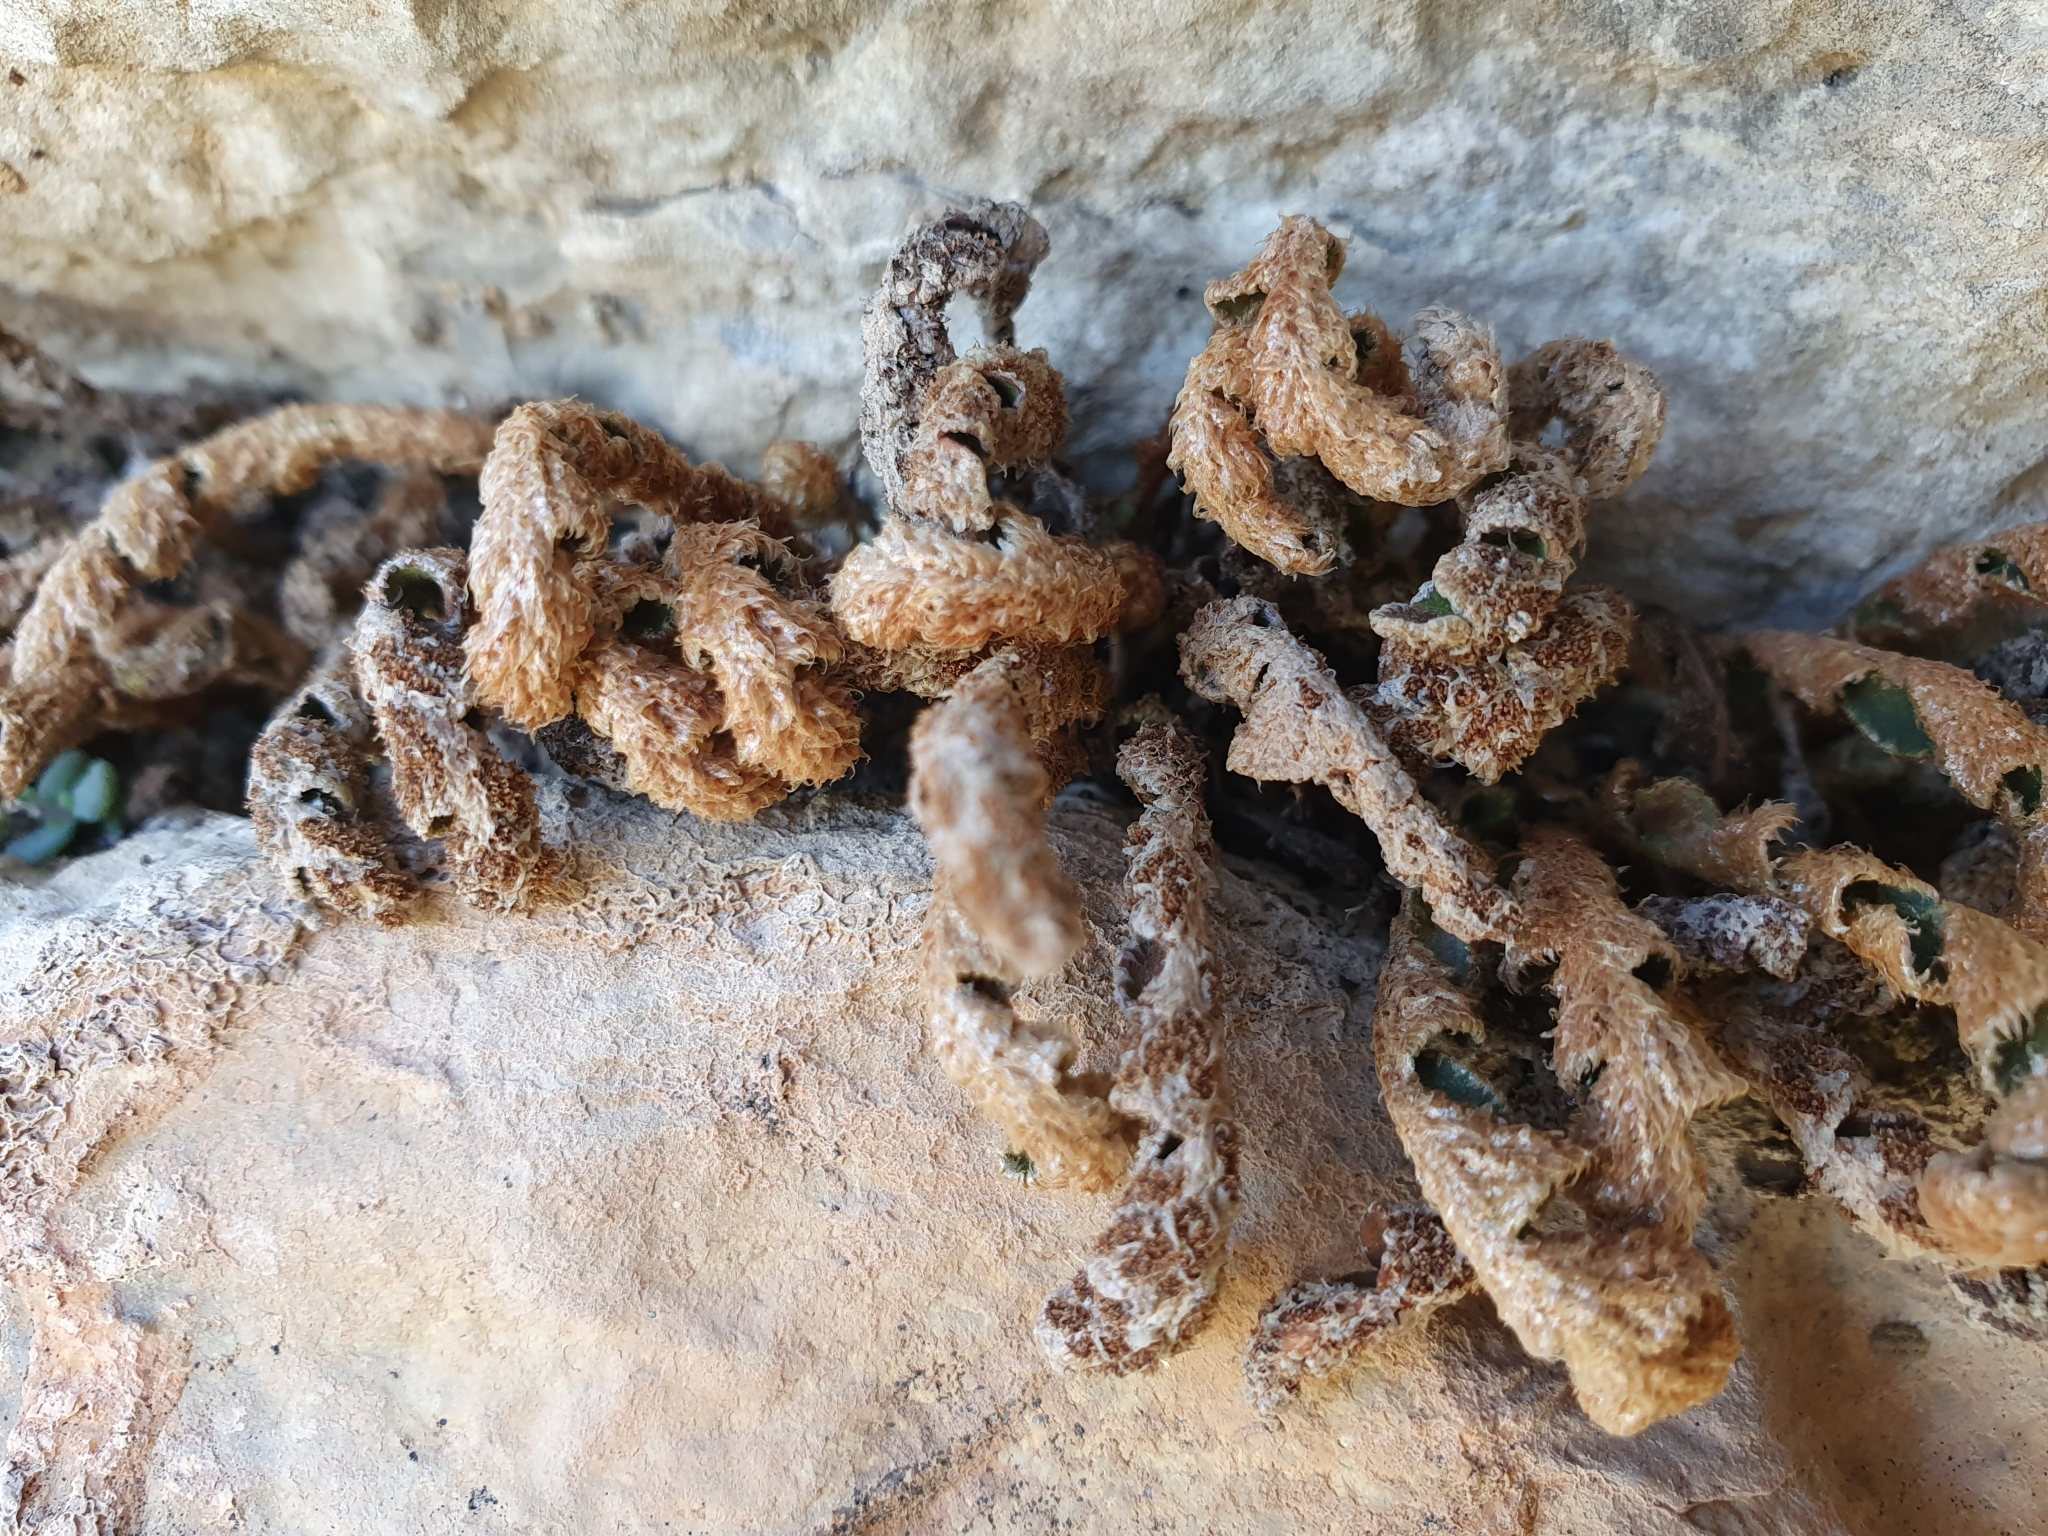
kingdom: Plantae
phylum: Tracheophyta
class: Polypodiopsida
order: Polypodiales
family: Aspleniaceae
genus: Asplenium
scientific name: Asplenium ceterach
